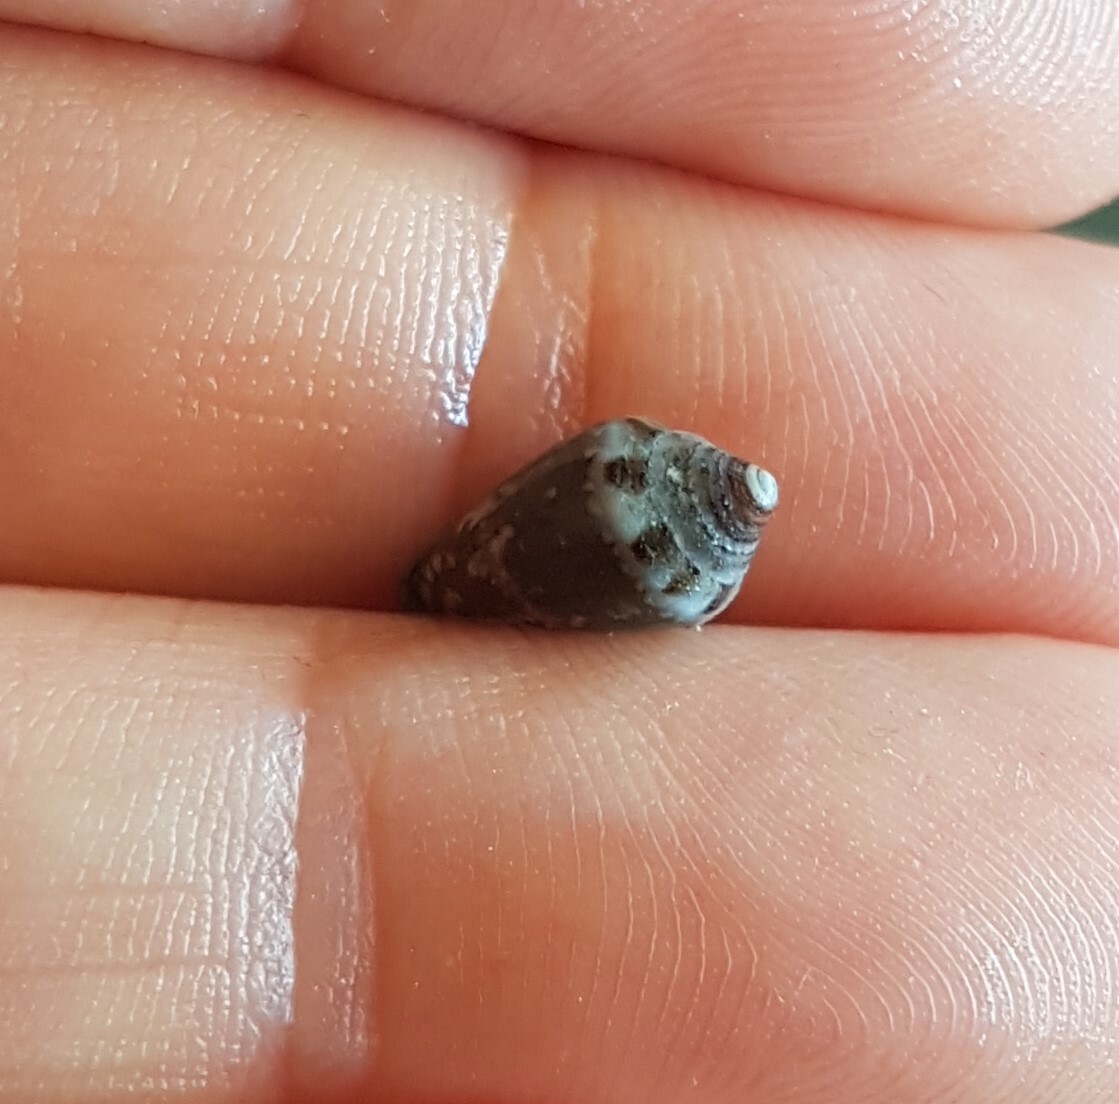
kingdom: Animalia
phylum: Mollusca
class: Gastropoda
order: Neogastropoda
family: Conidae
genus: Conus
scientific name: Conus ventricosus
